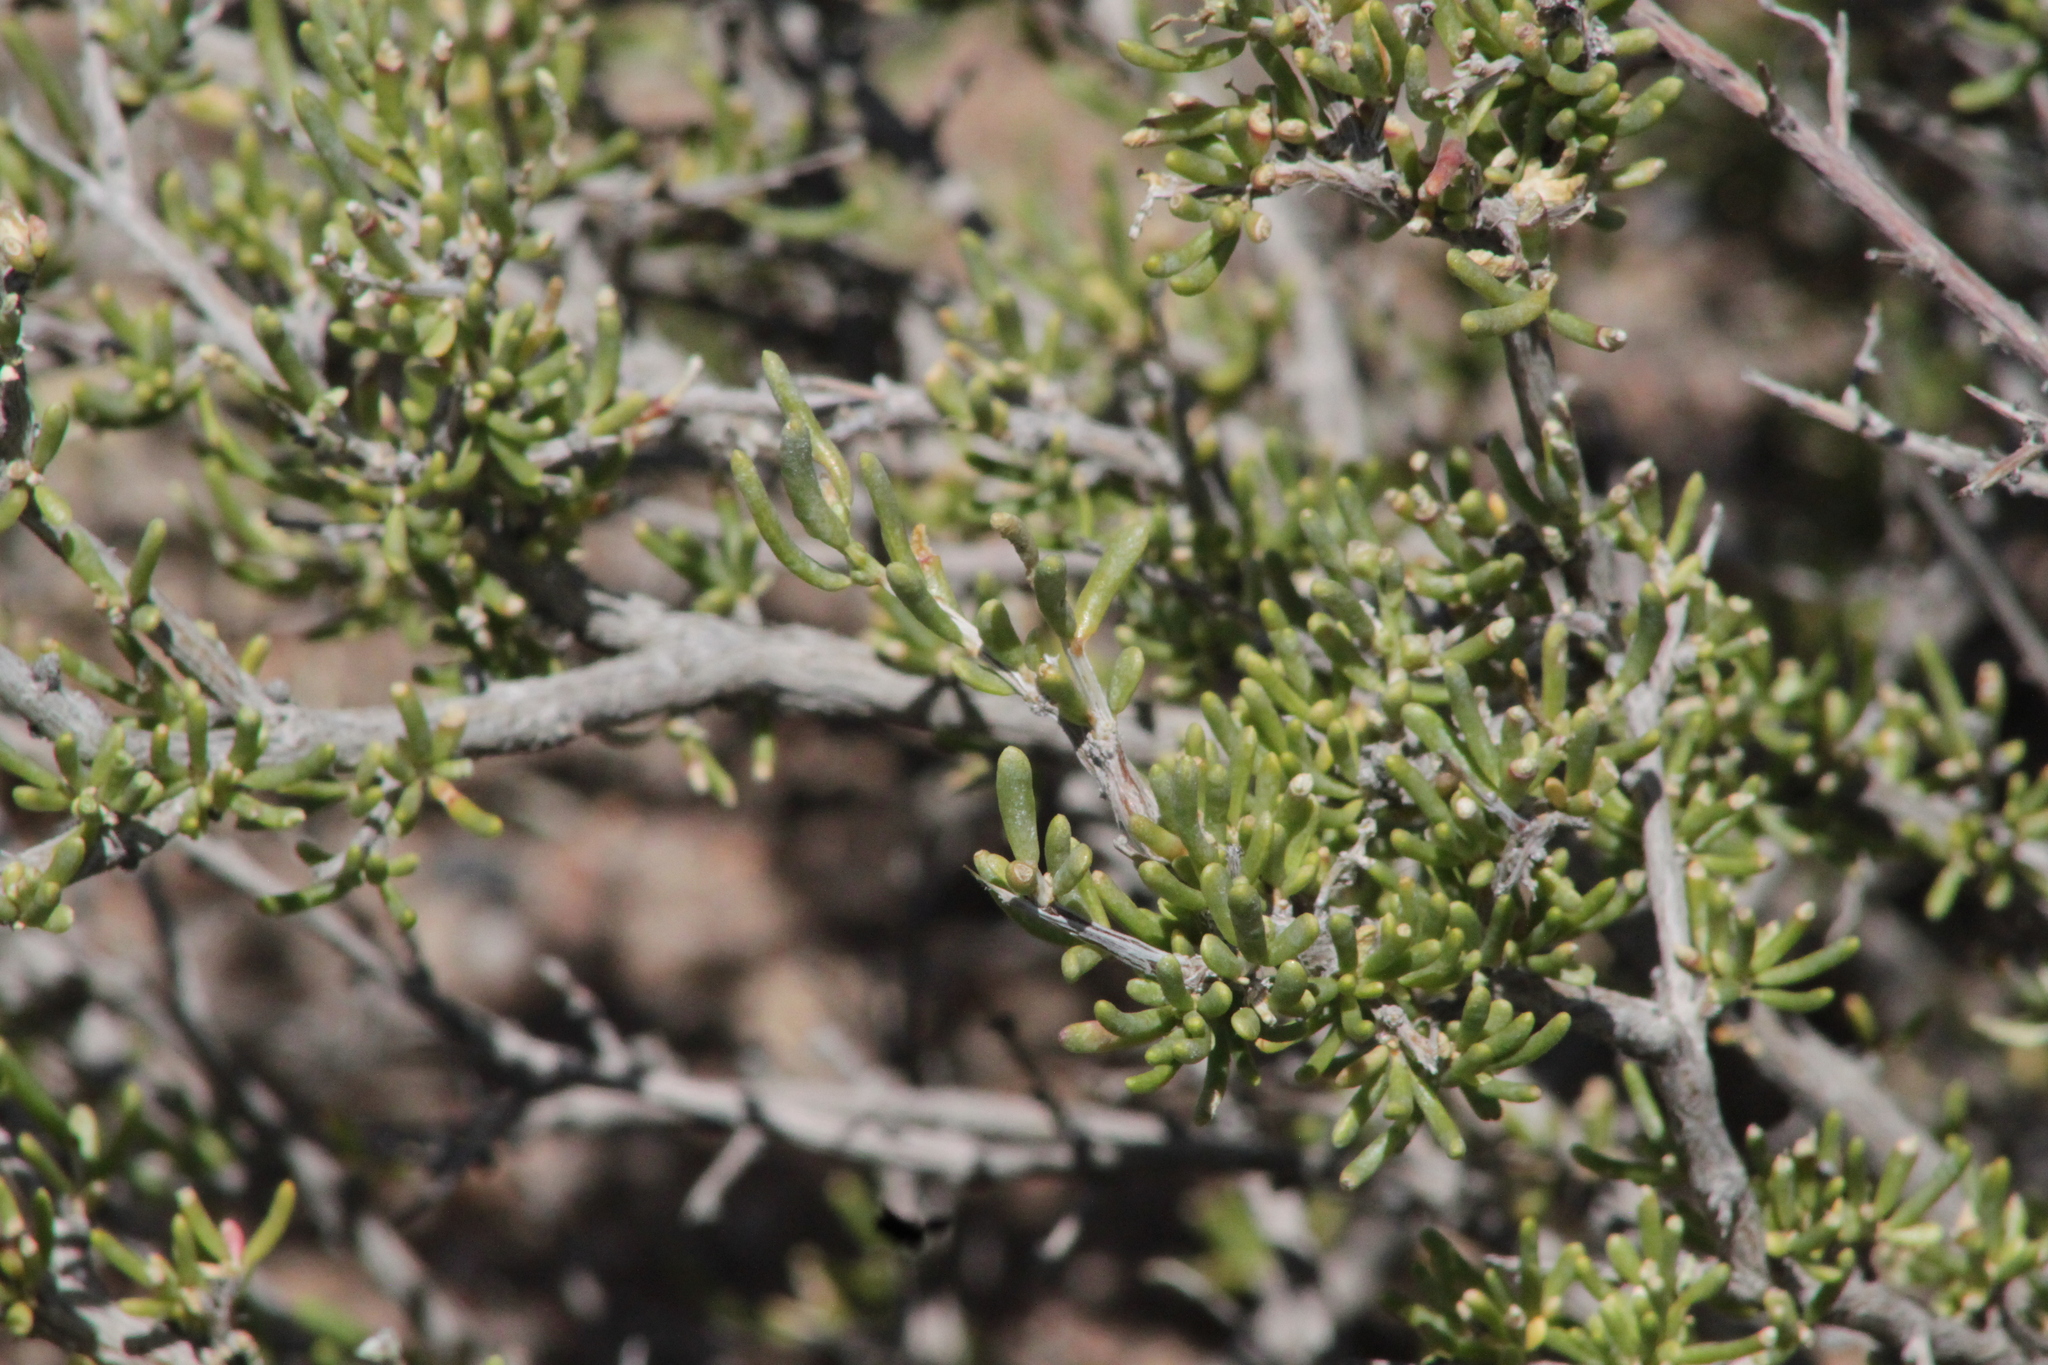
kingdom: Plantae
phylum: Tracheophyta
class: Magnoliopsida
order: Caryophyllales
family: Amaranthaceae
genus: Collinosalsola
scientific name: Collinosalsola arbusculiformis
